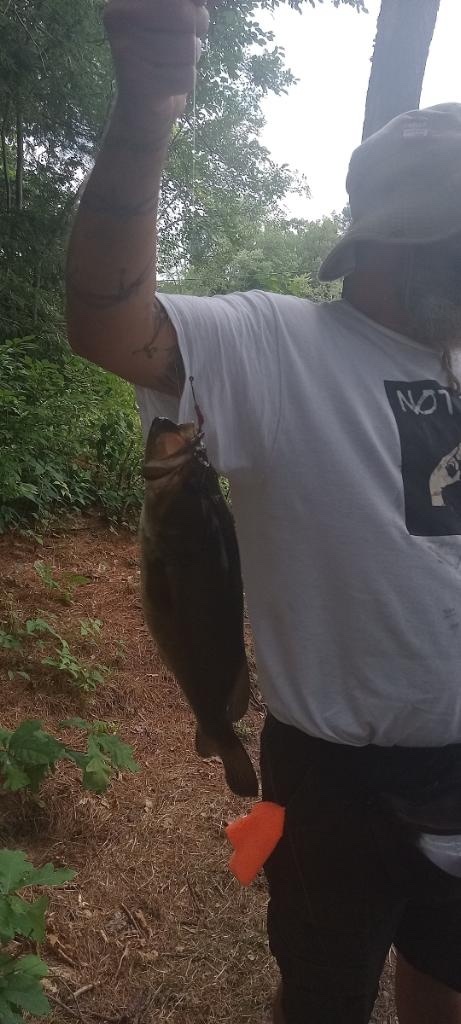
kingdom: Animalia
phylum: Chordata
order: Perciformes
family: Centrarchidae
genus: Micropterus
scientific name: Micropterus
